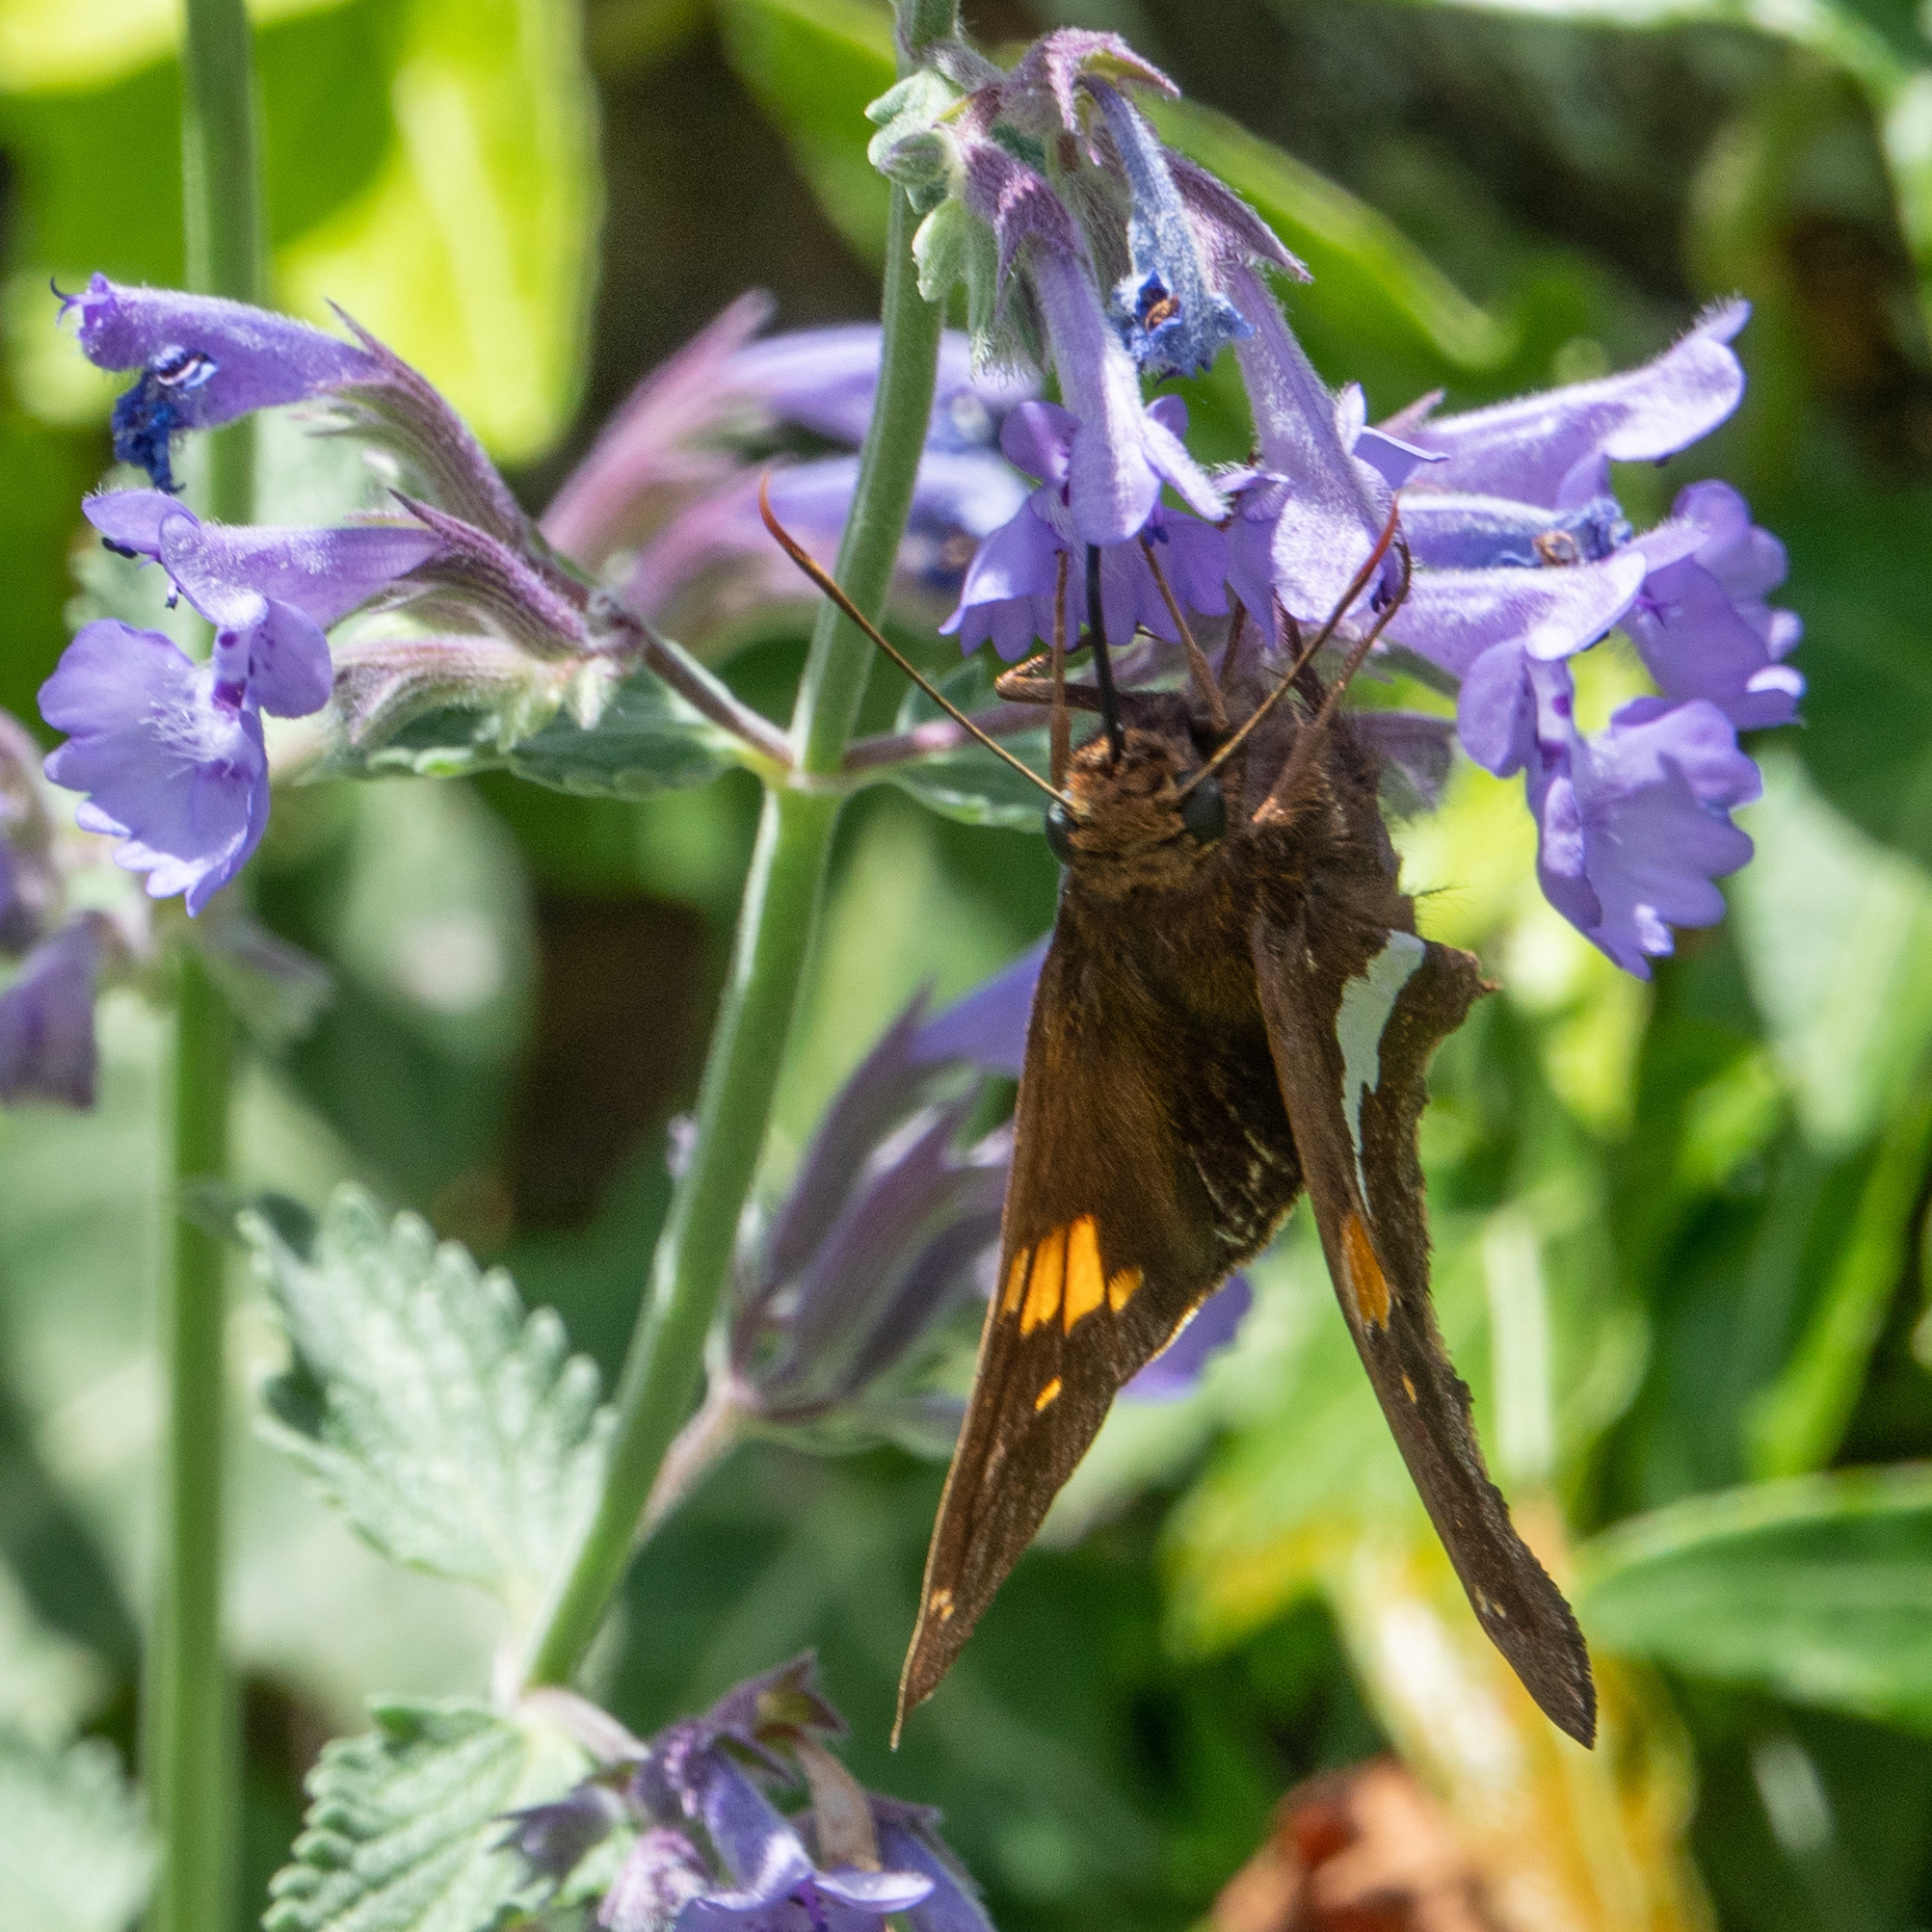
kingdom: Animalia
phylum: Arthropoda
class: Insecta
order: Lepidoptera
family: Hesperiidae
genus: Epargyreus
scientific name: Epargyreus clarus
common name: Silver-spotted skipper
